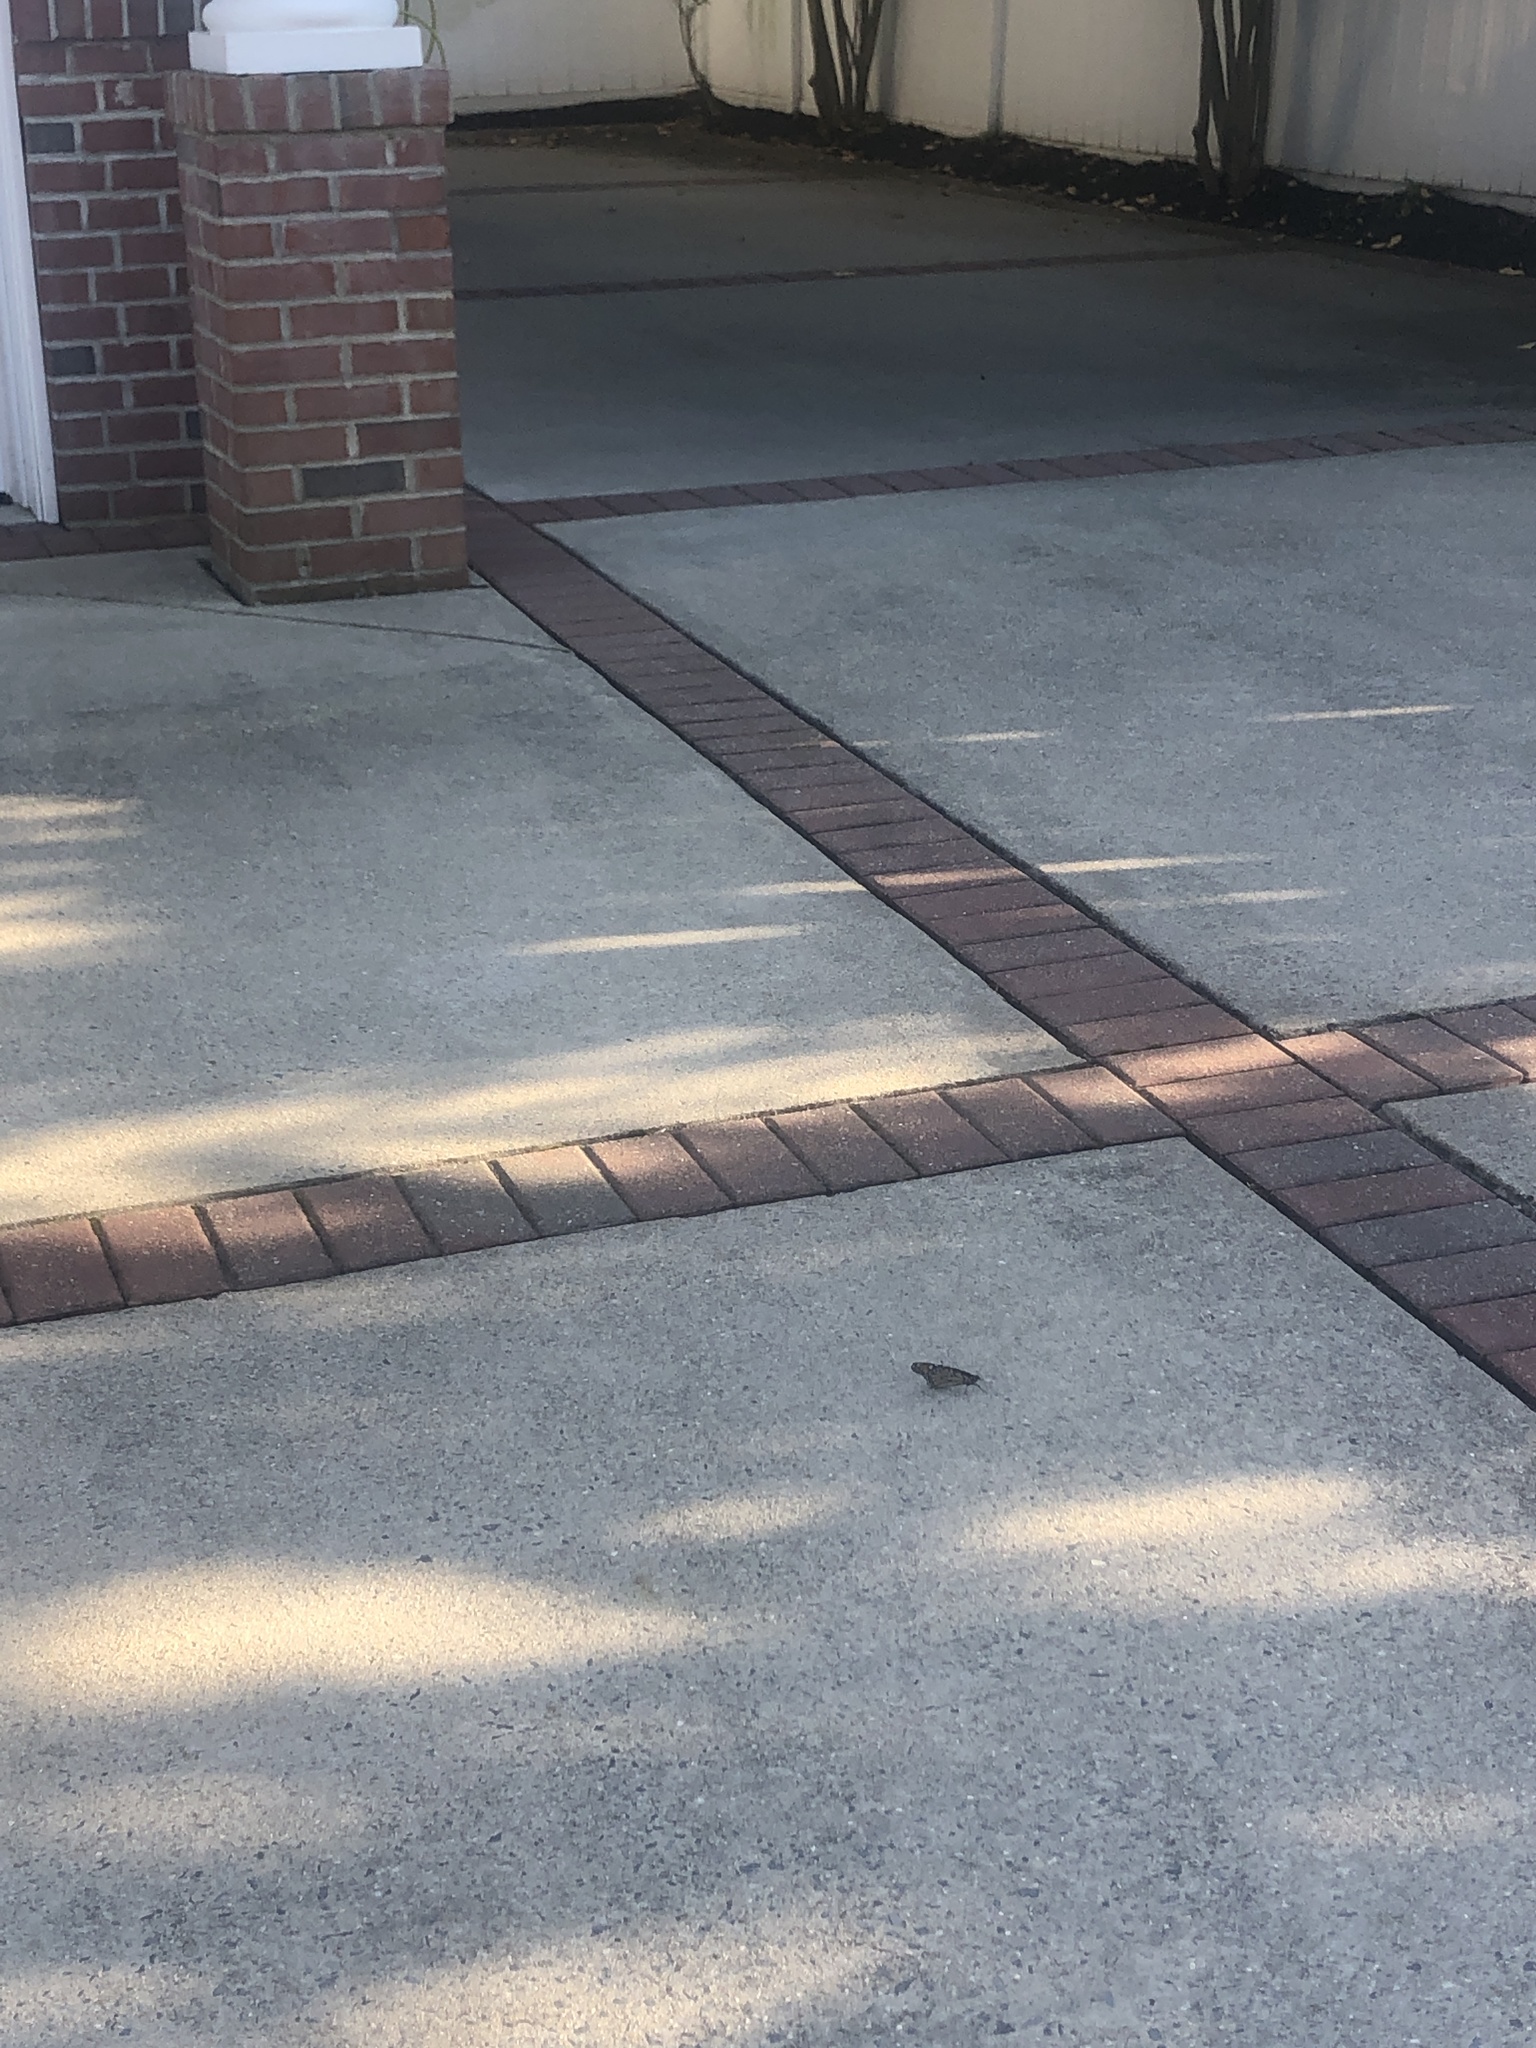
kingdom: Animalia
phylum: Arthropoda
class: Insecta
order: Lepidoptera
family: Nymphalidae
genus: Danaus
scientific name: Danaus plexippus
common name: Monarch
